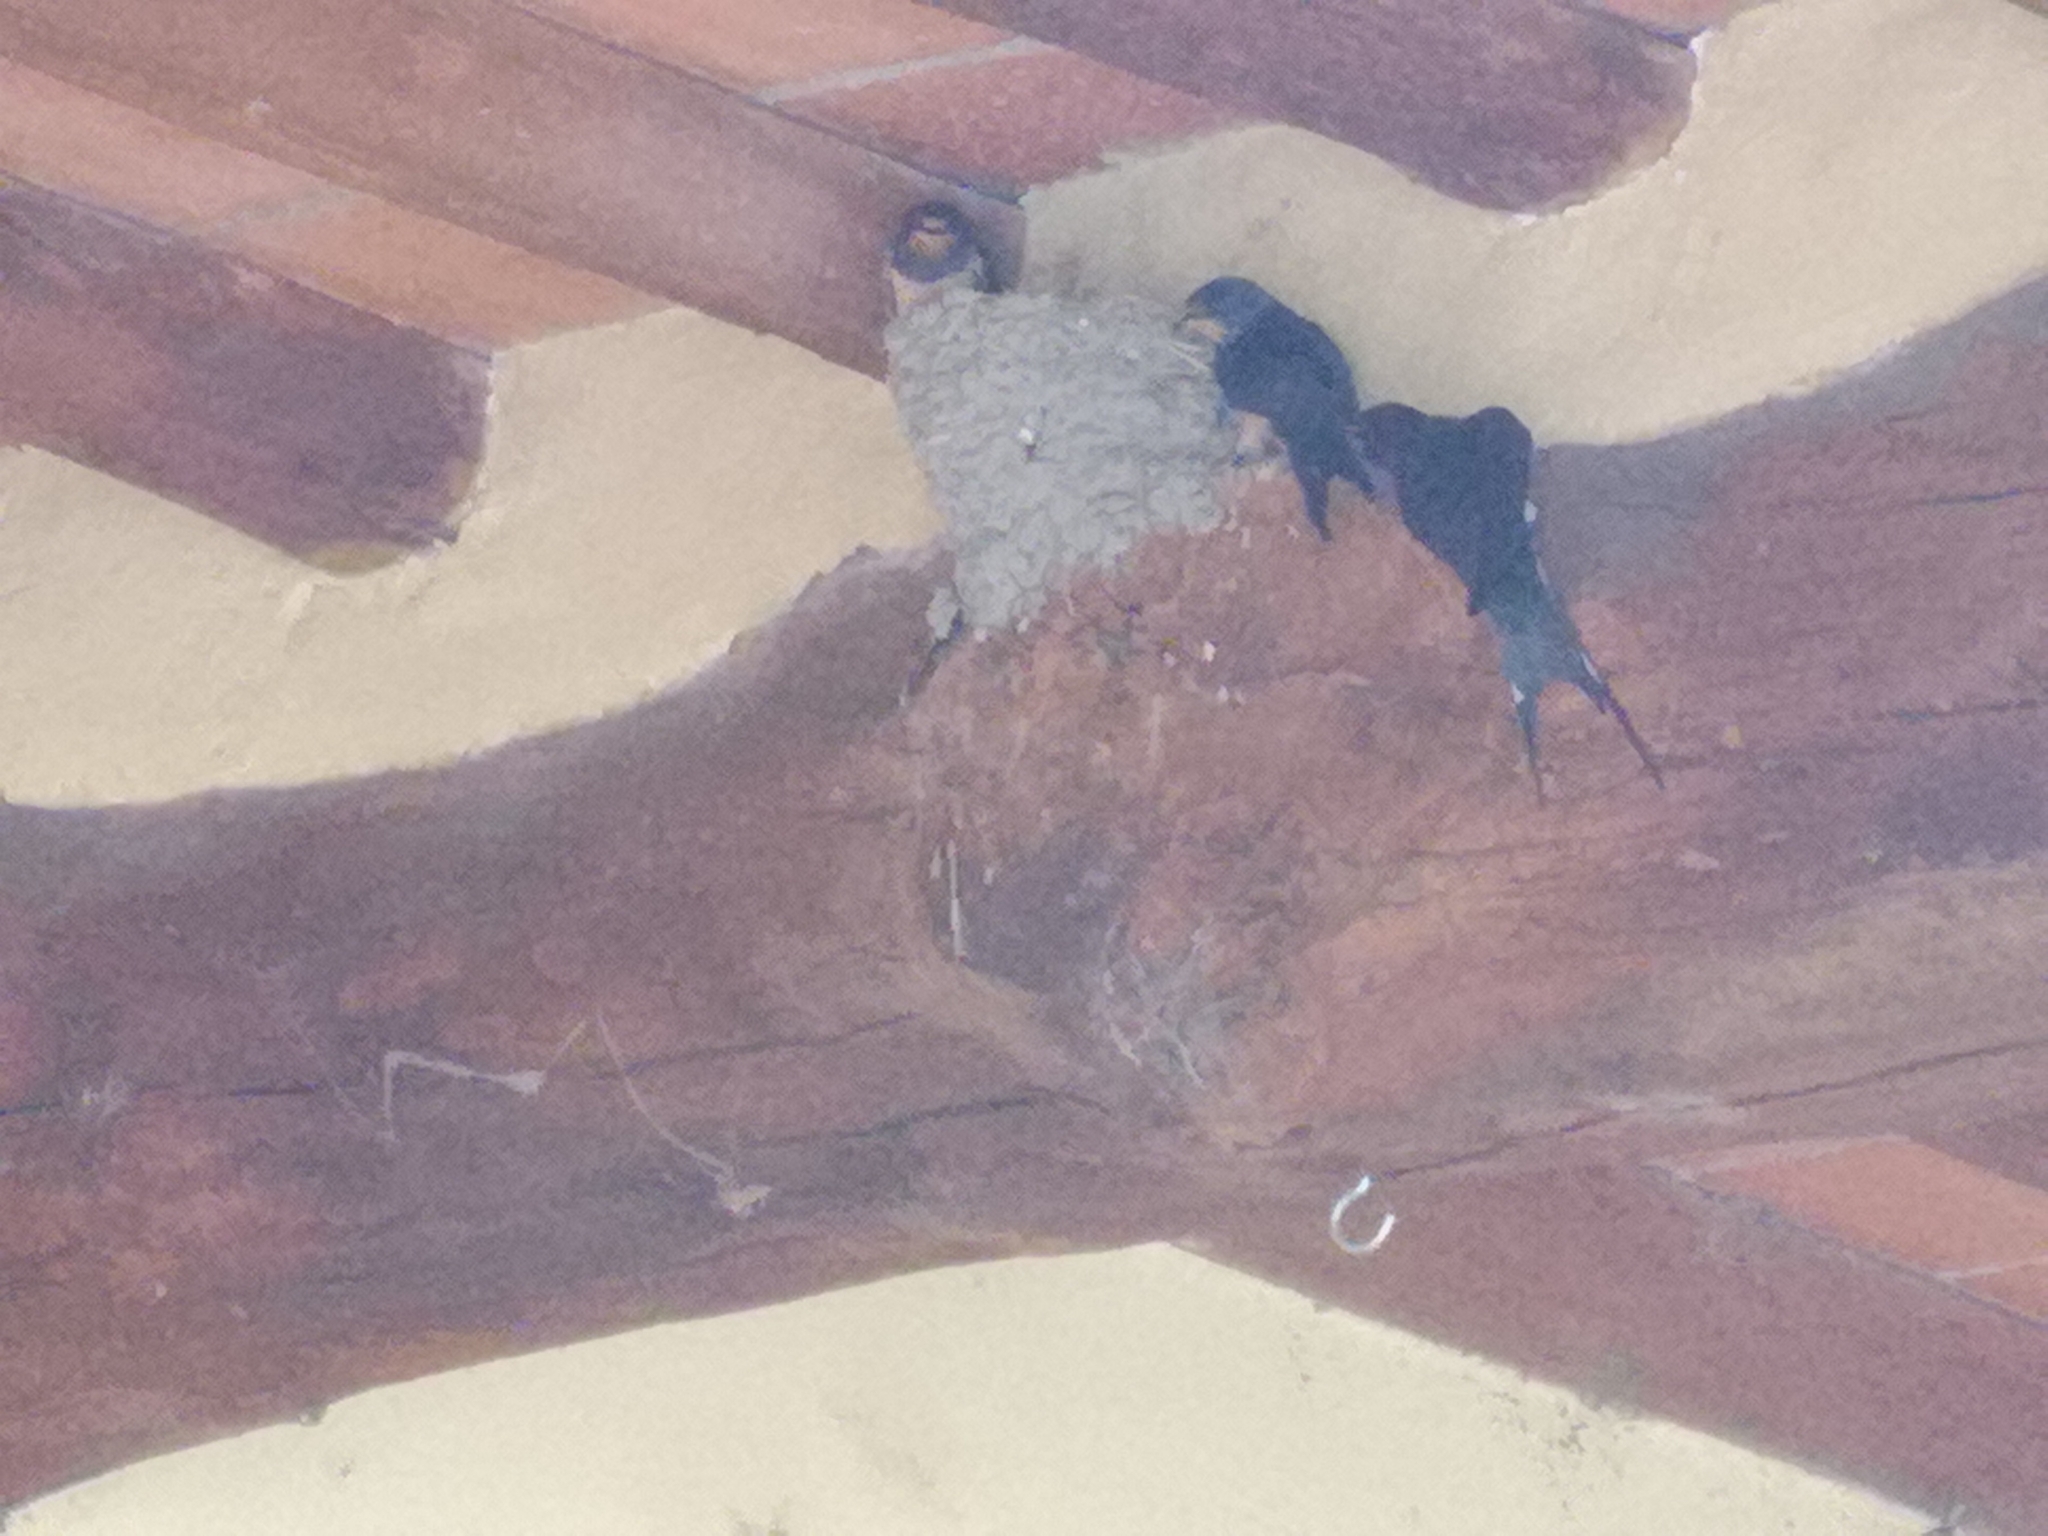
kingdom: Animalia
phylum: Chordata
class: Aves
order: Passeriformes
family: Hirundinidae
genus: Hirundo
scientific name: Hirundo rustica
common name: Barn swallow
